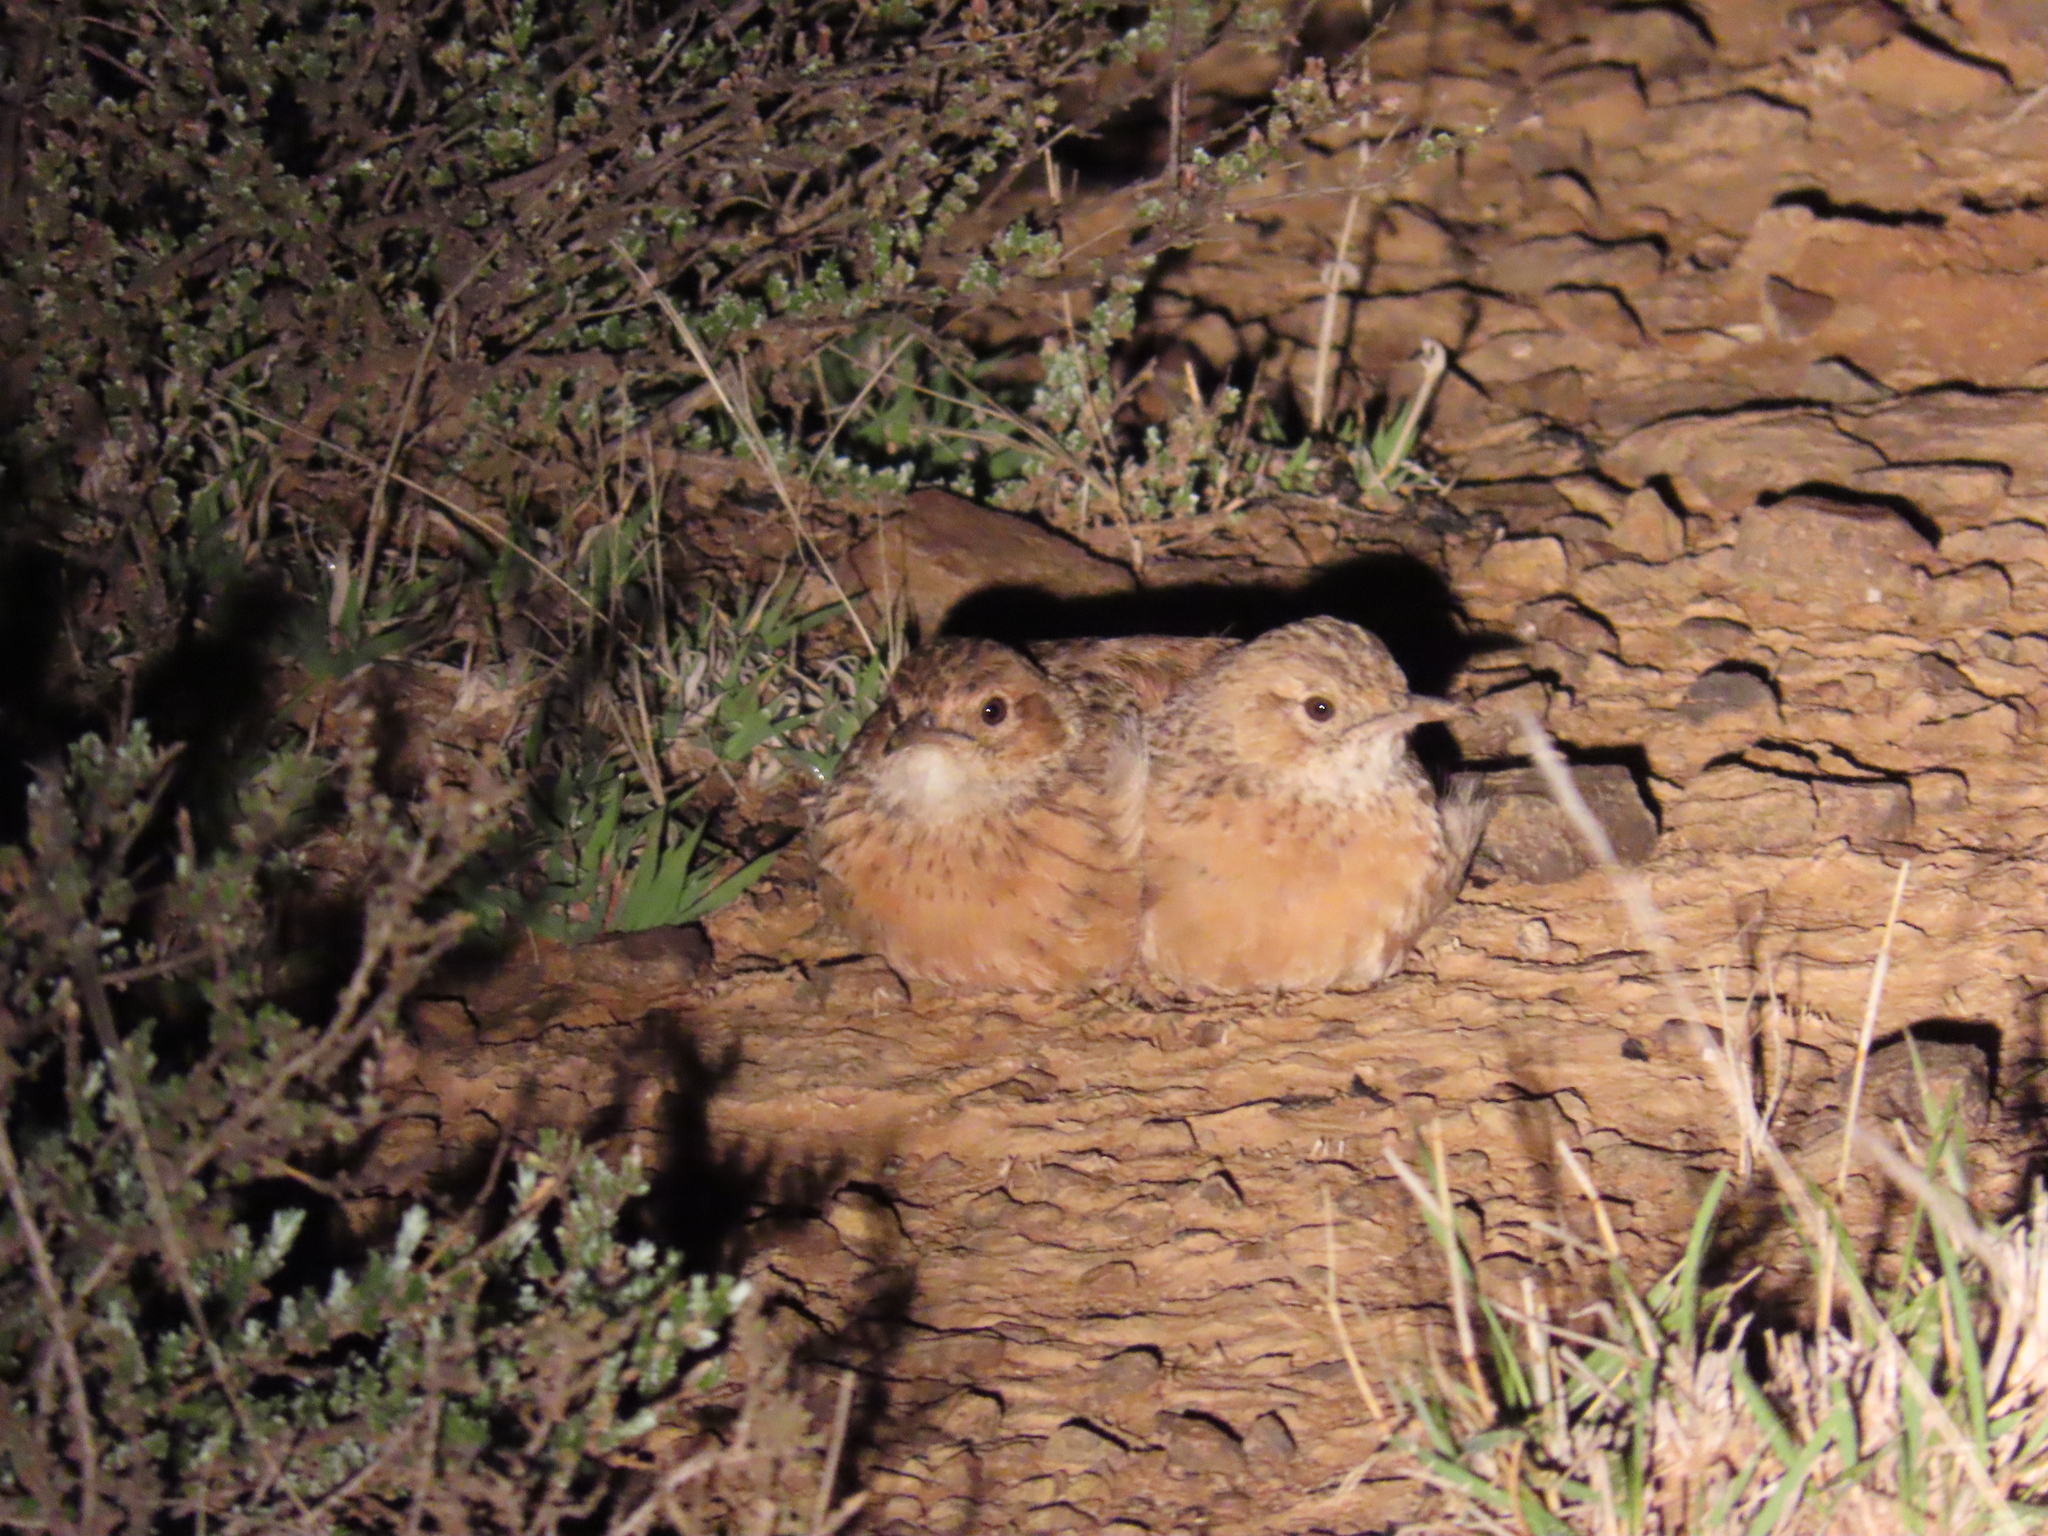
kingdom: Animalia
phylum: Chordata
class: Aves
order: Passeriformes
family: Alaudidae
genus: Chersomanes
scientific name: Chersomanes albofasciata
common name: Spike-heeled lark
